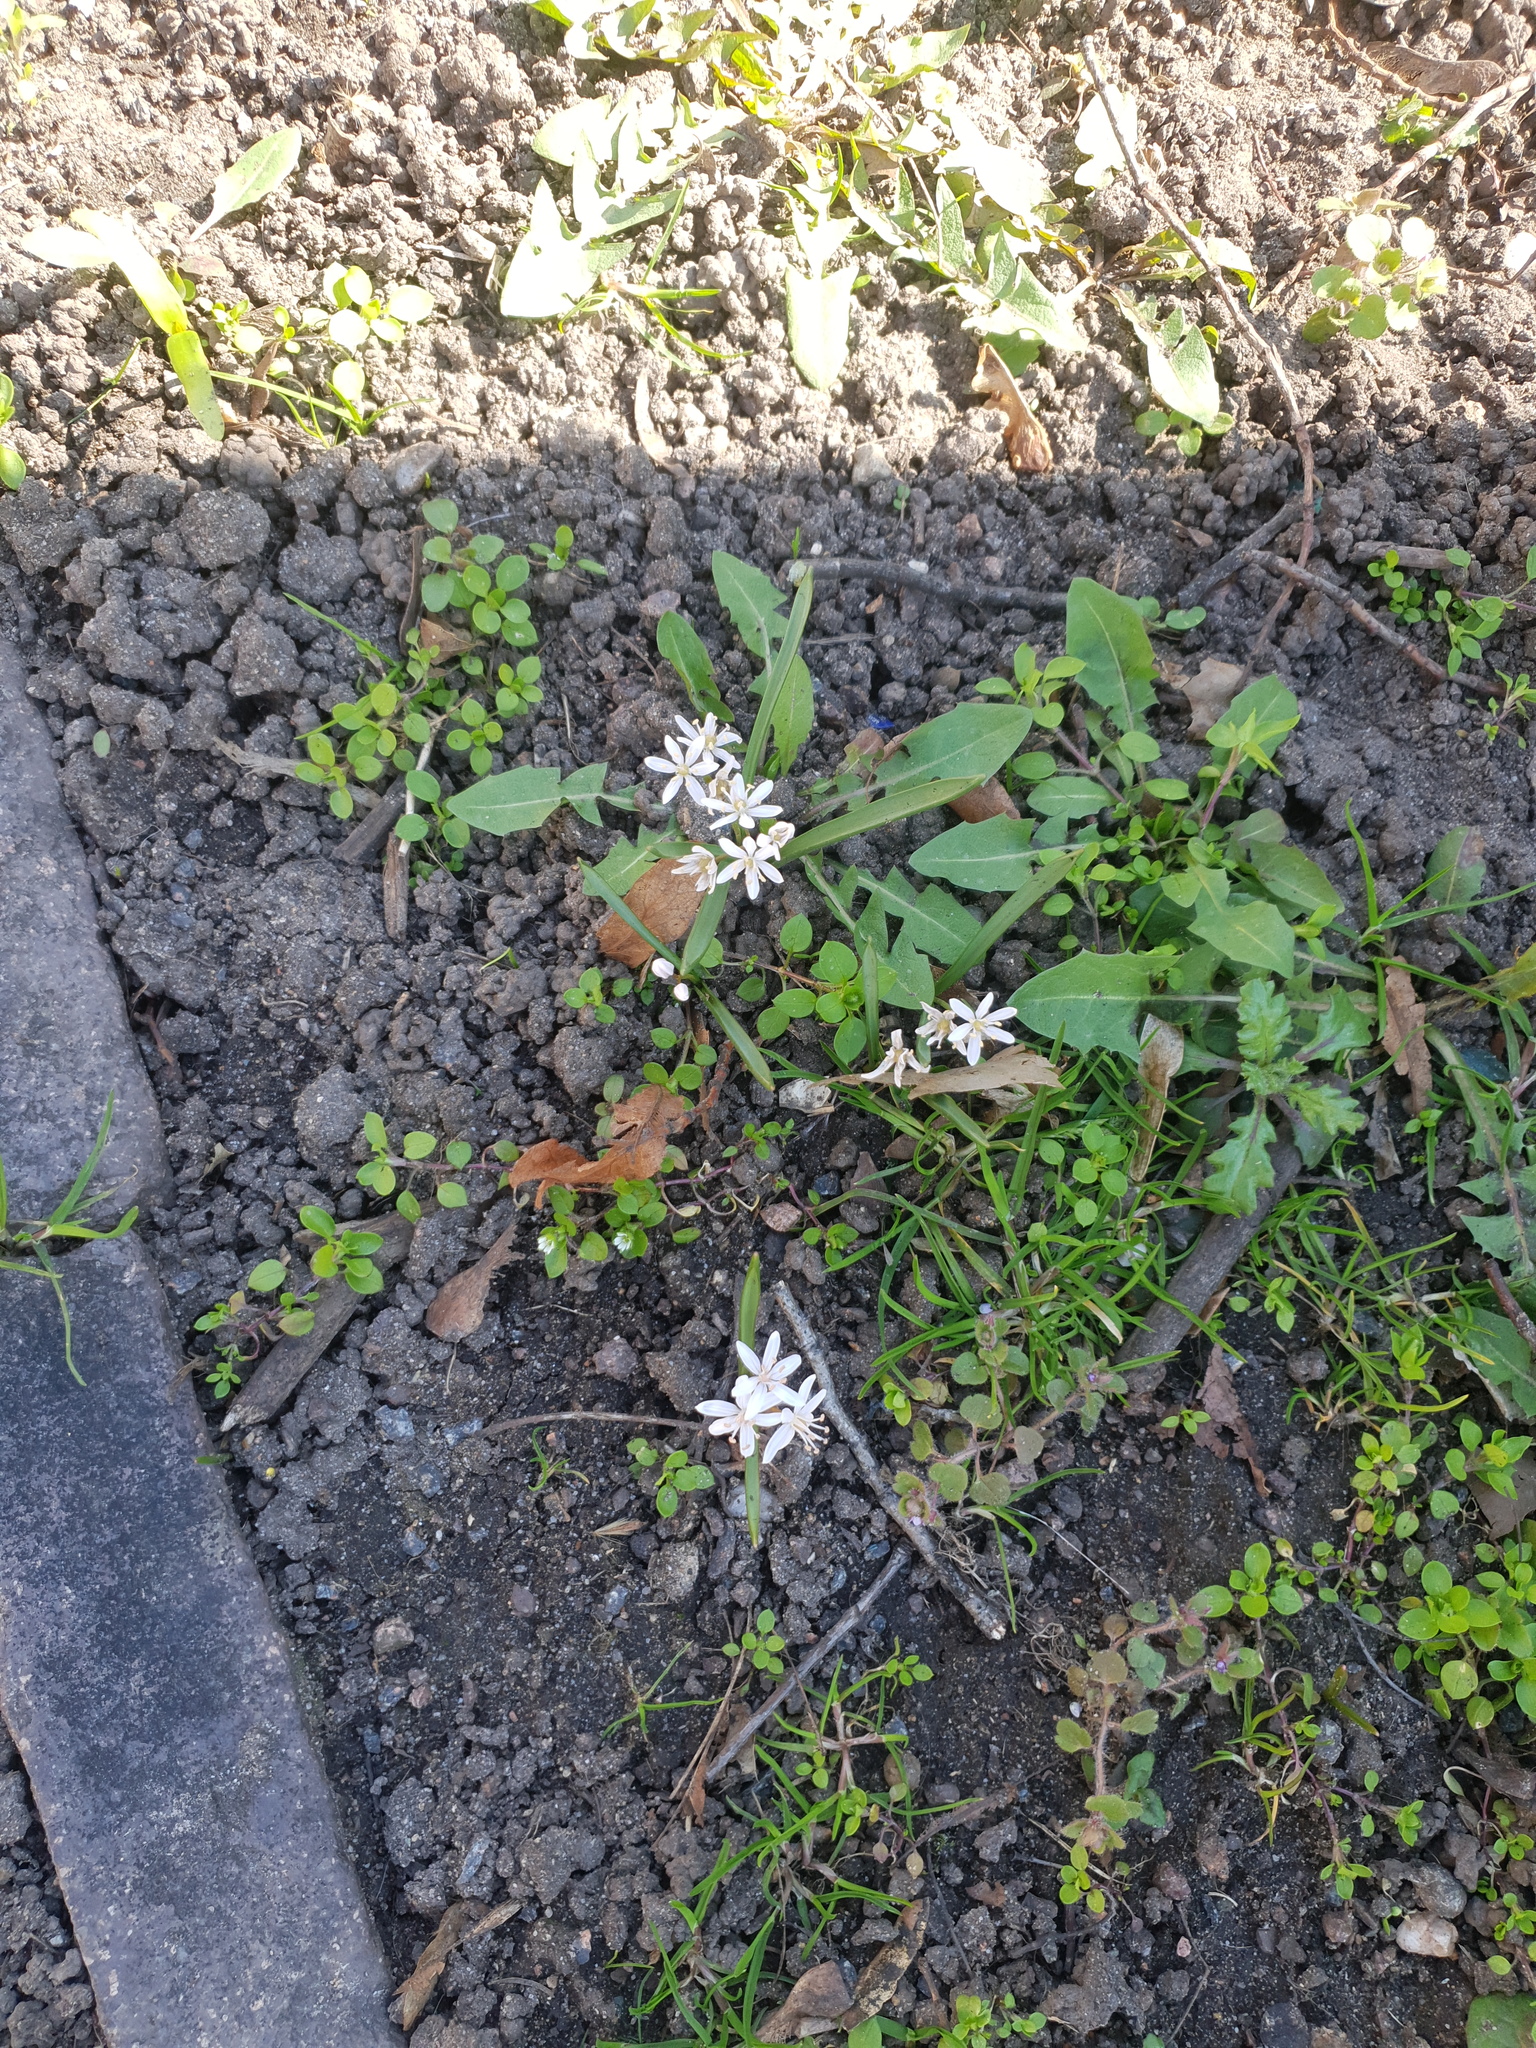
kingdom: Plantae
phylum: Tracheophyta
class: Liliopsida
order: Asparagales
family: Asparagaceae
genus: Scilla
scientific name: Scilla bifolia
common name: Alpine squill
